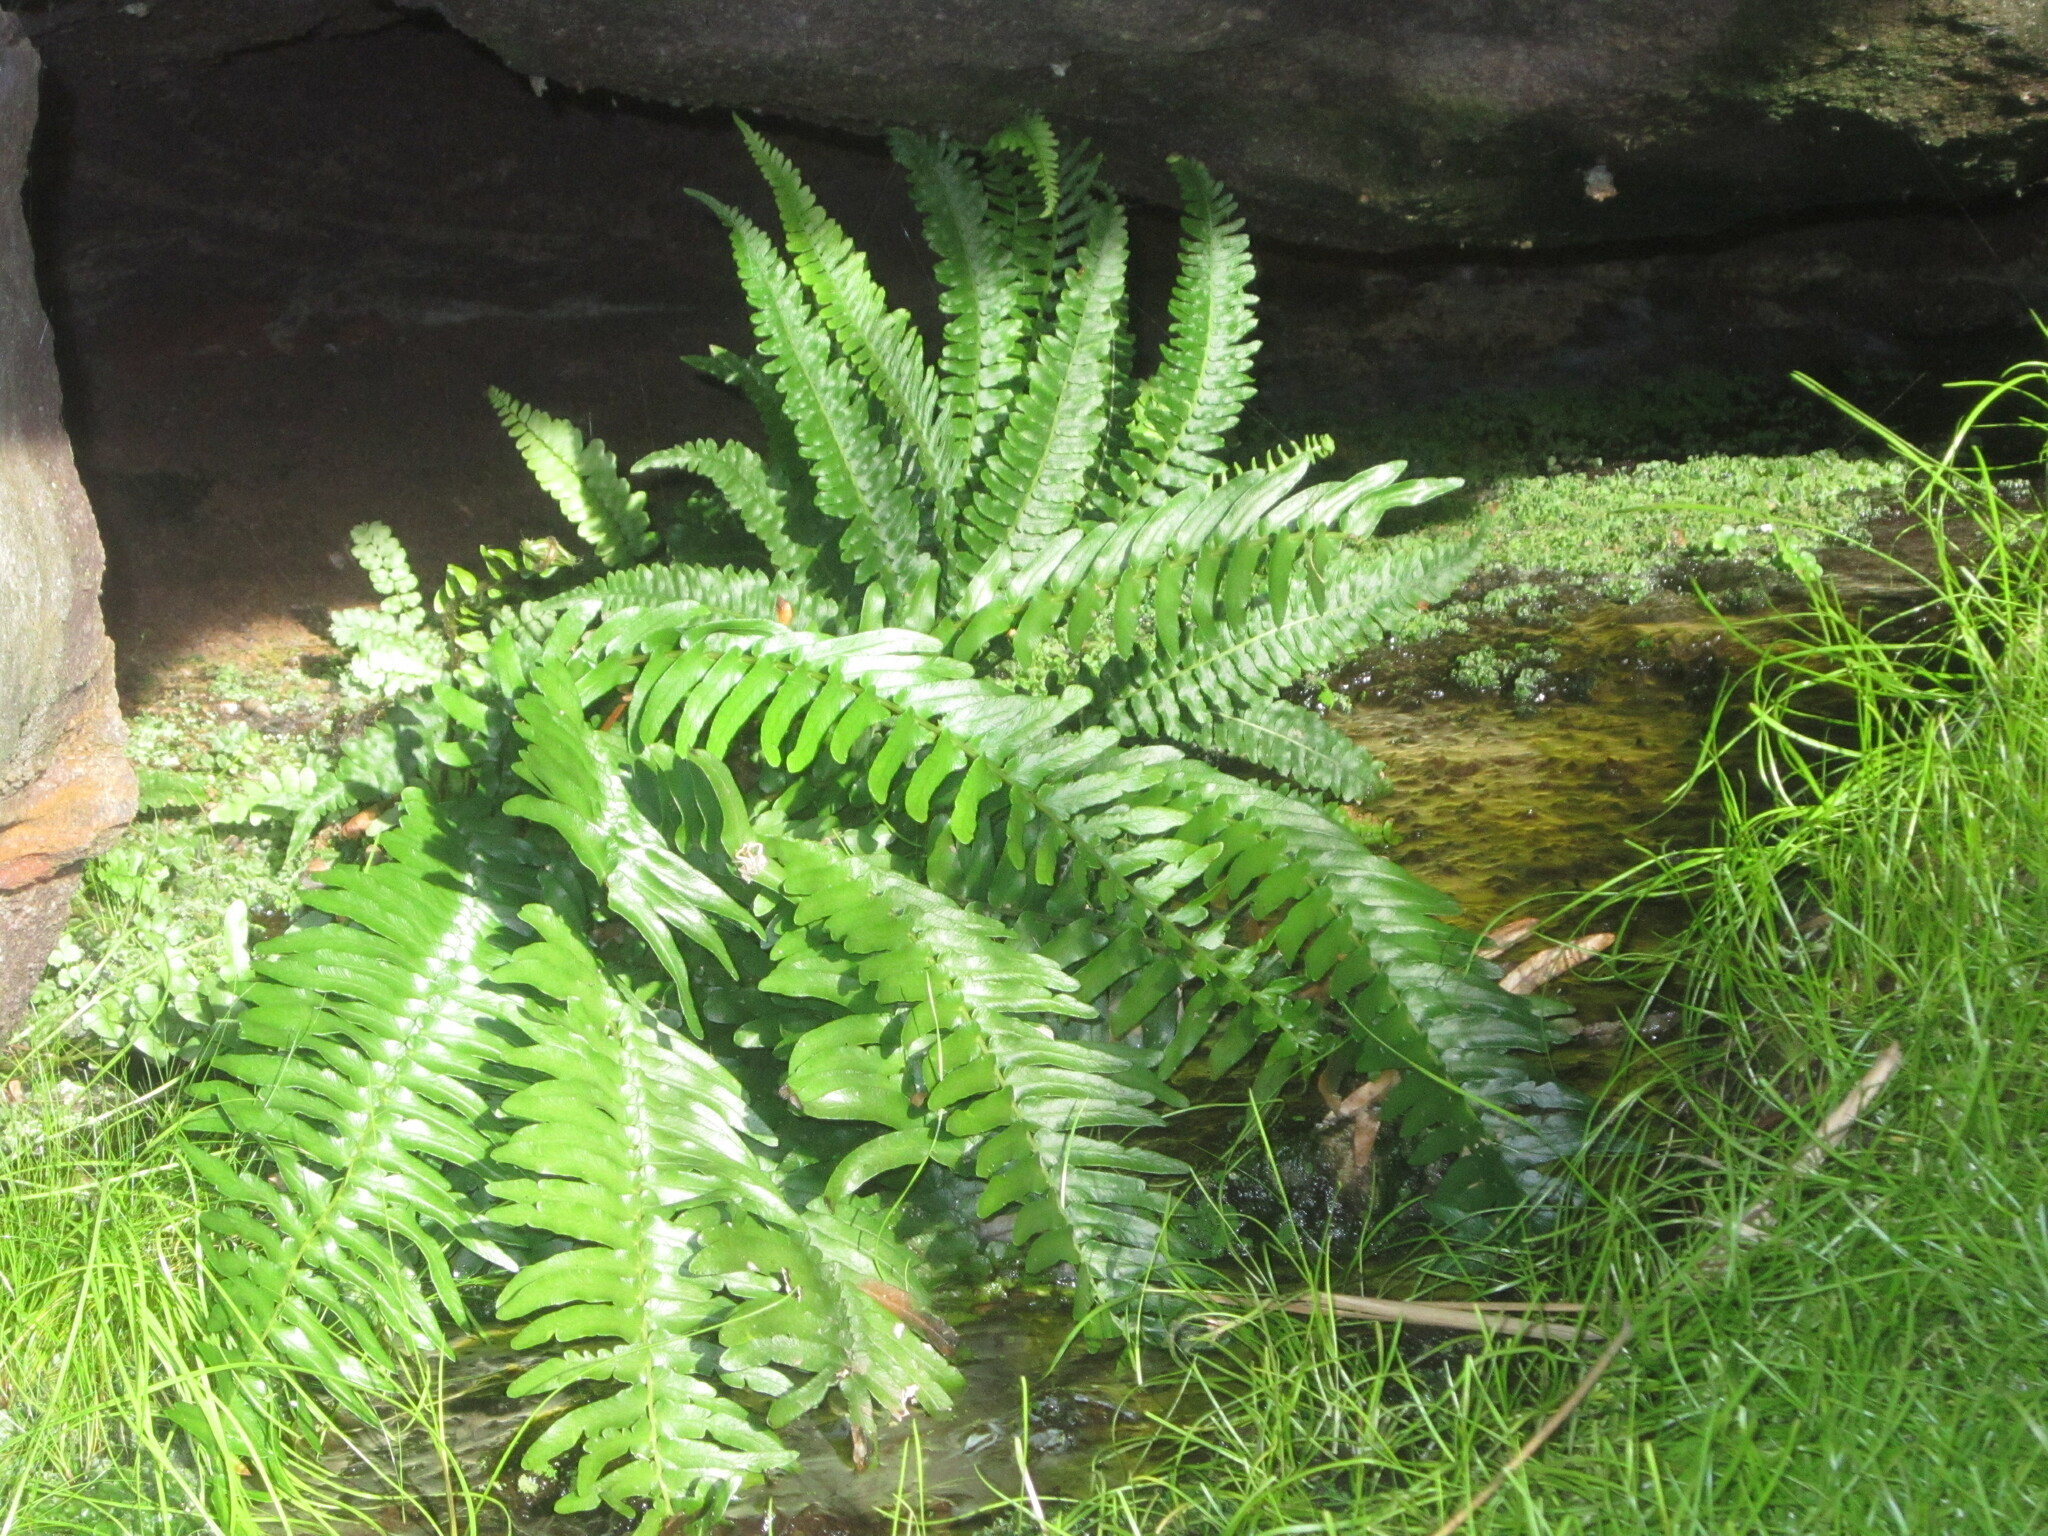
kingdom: Plantae
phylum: Tracheophyta
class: Polypodiopsida
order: Polypodiales
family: Blechnaceae
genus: Blechnum
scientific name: Blechnum punctulatum
